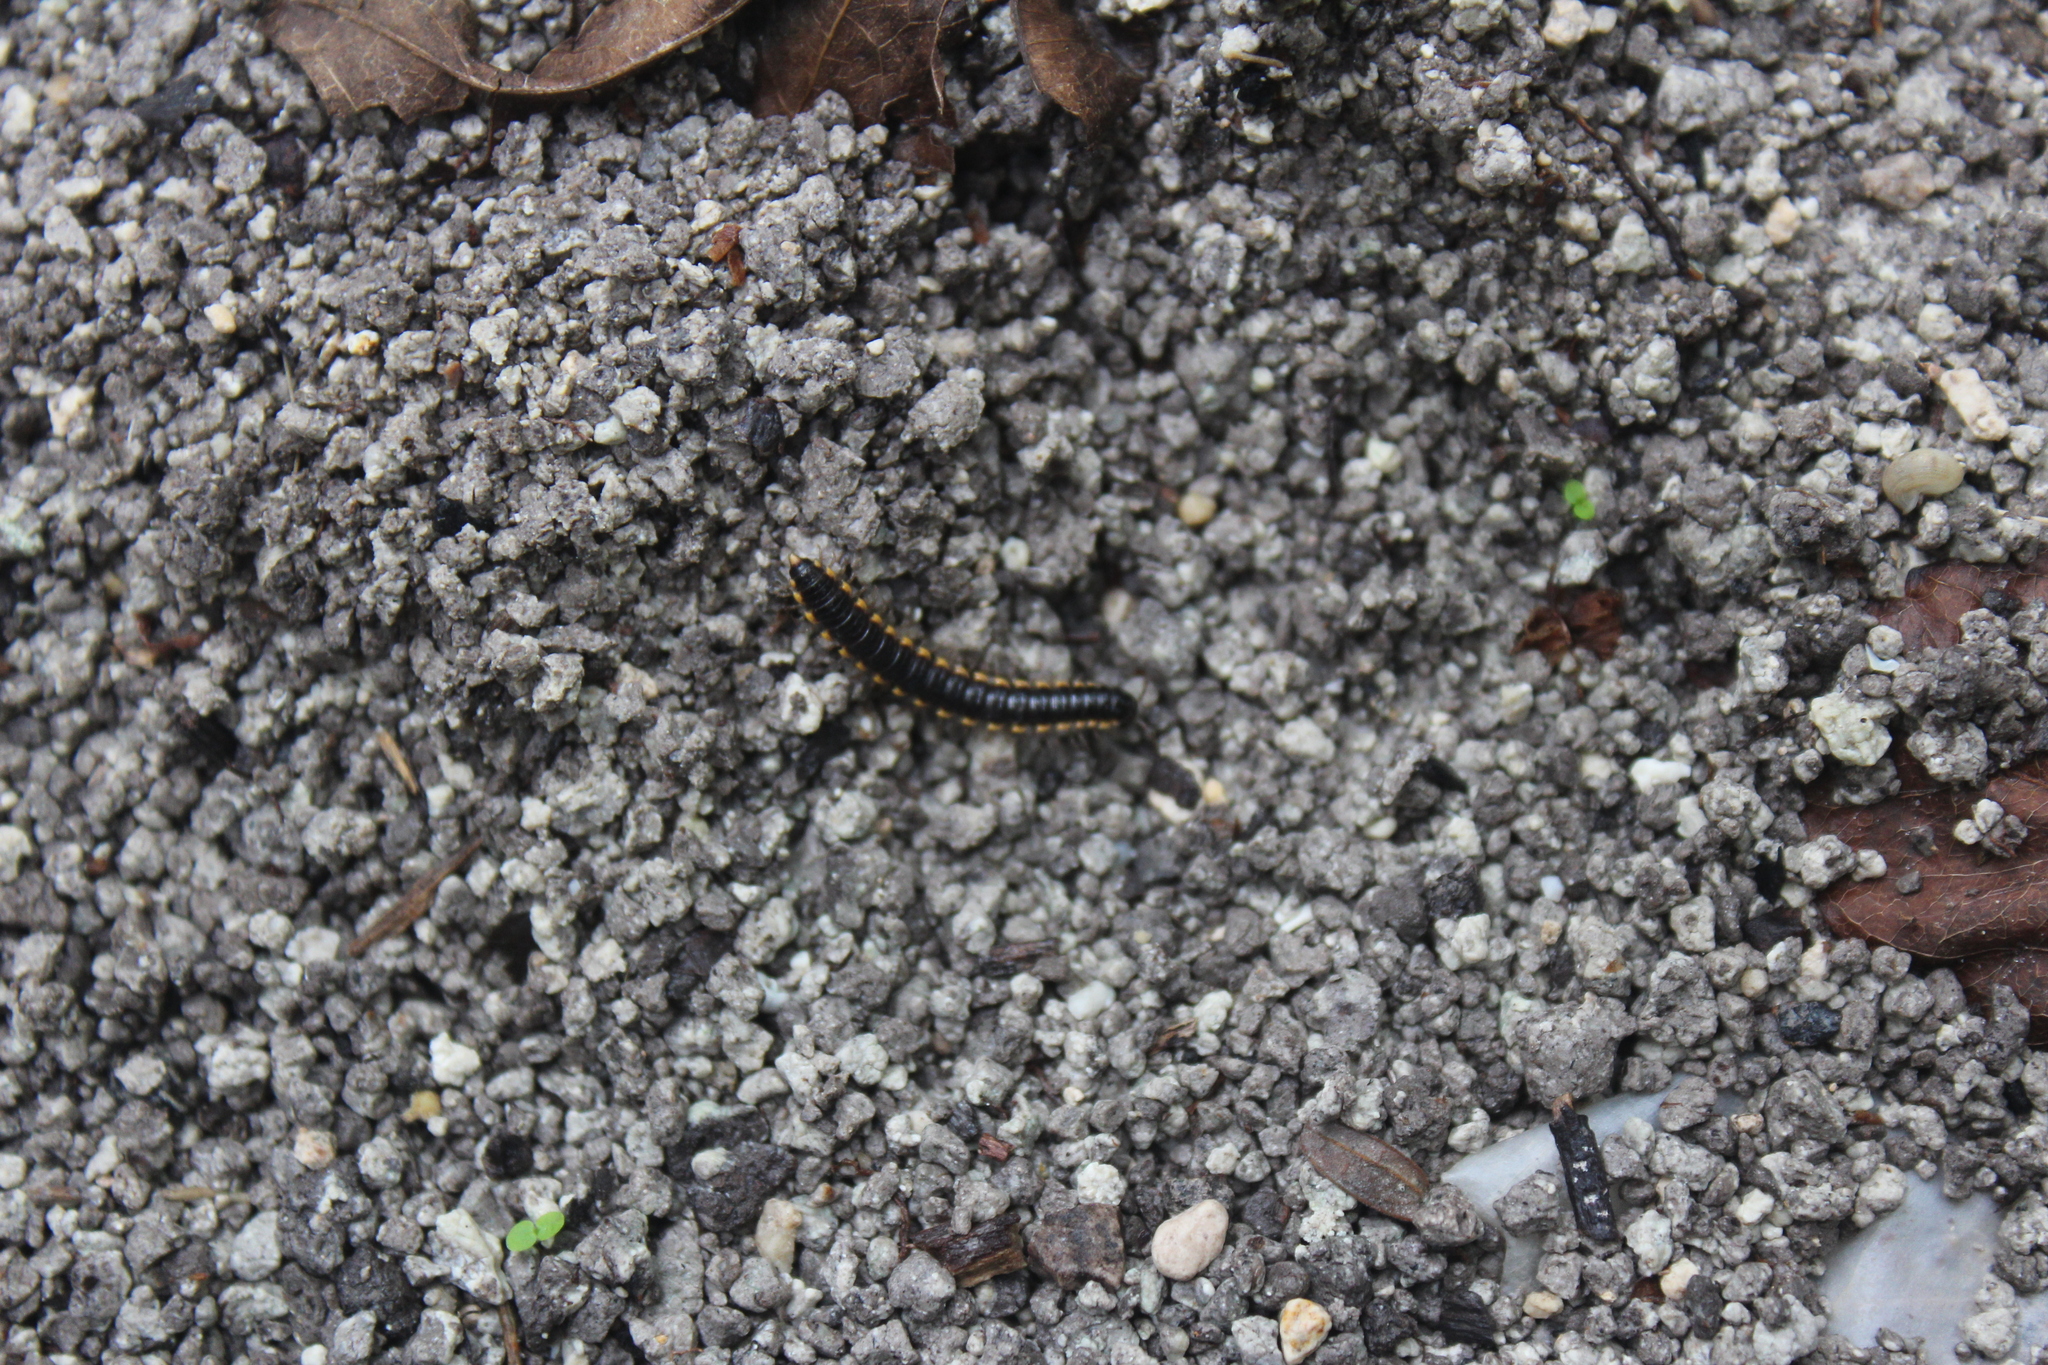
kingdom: Animalia
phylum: Arthropoda
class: Diplopoda
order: Polydesmida
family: Paradoxosomatidae
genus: Orthomorpha
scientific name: Orthomorpha coarctata
